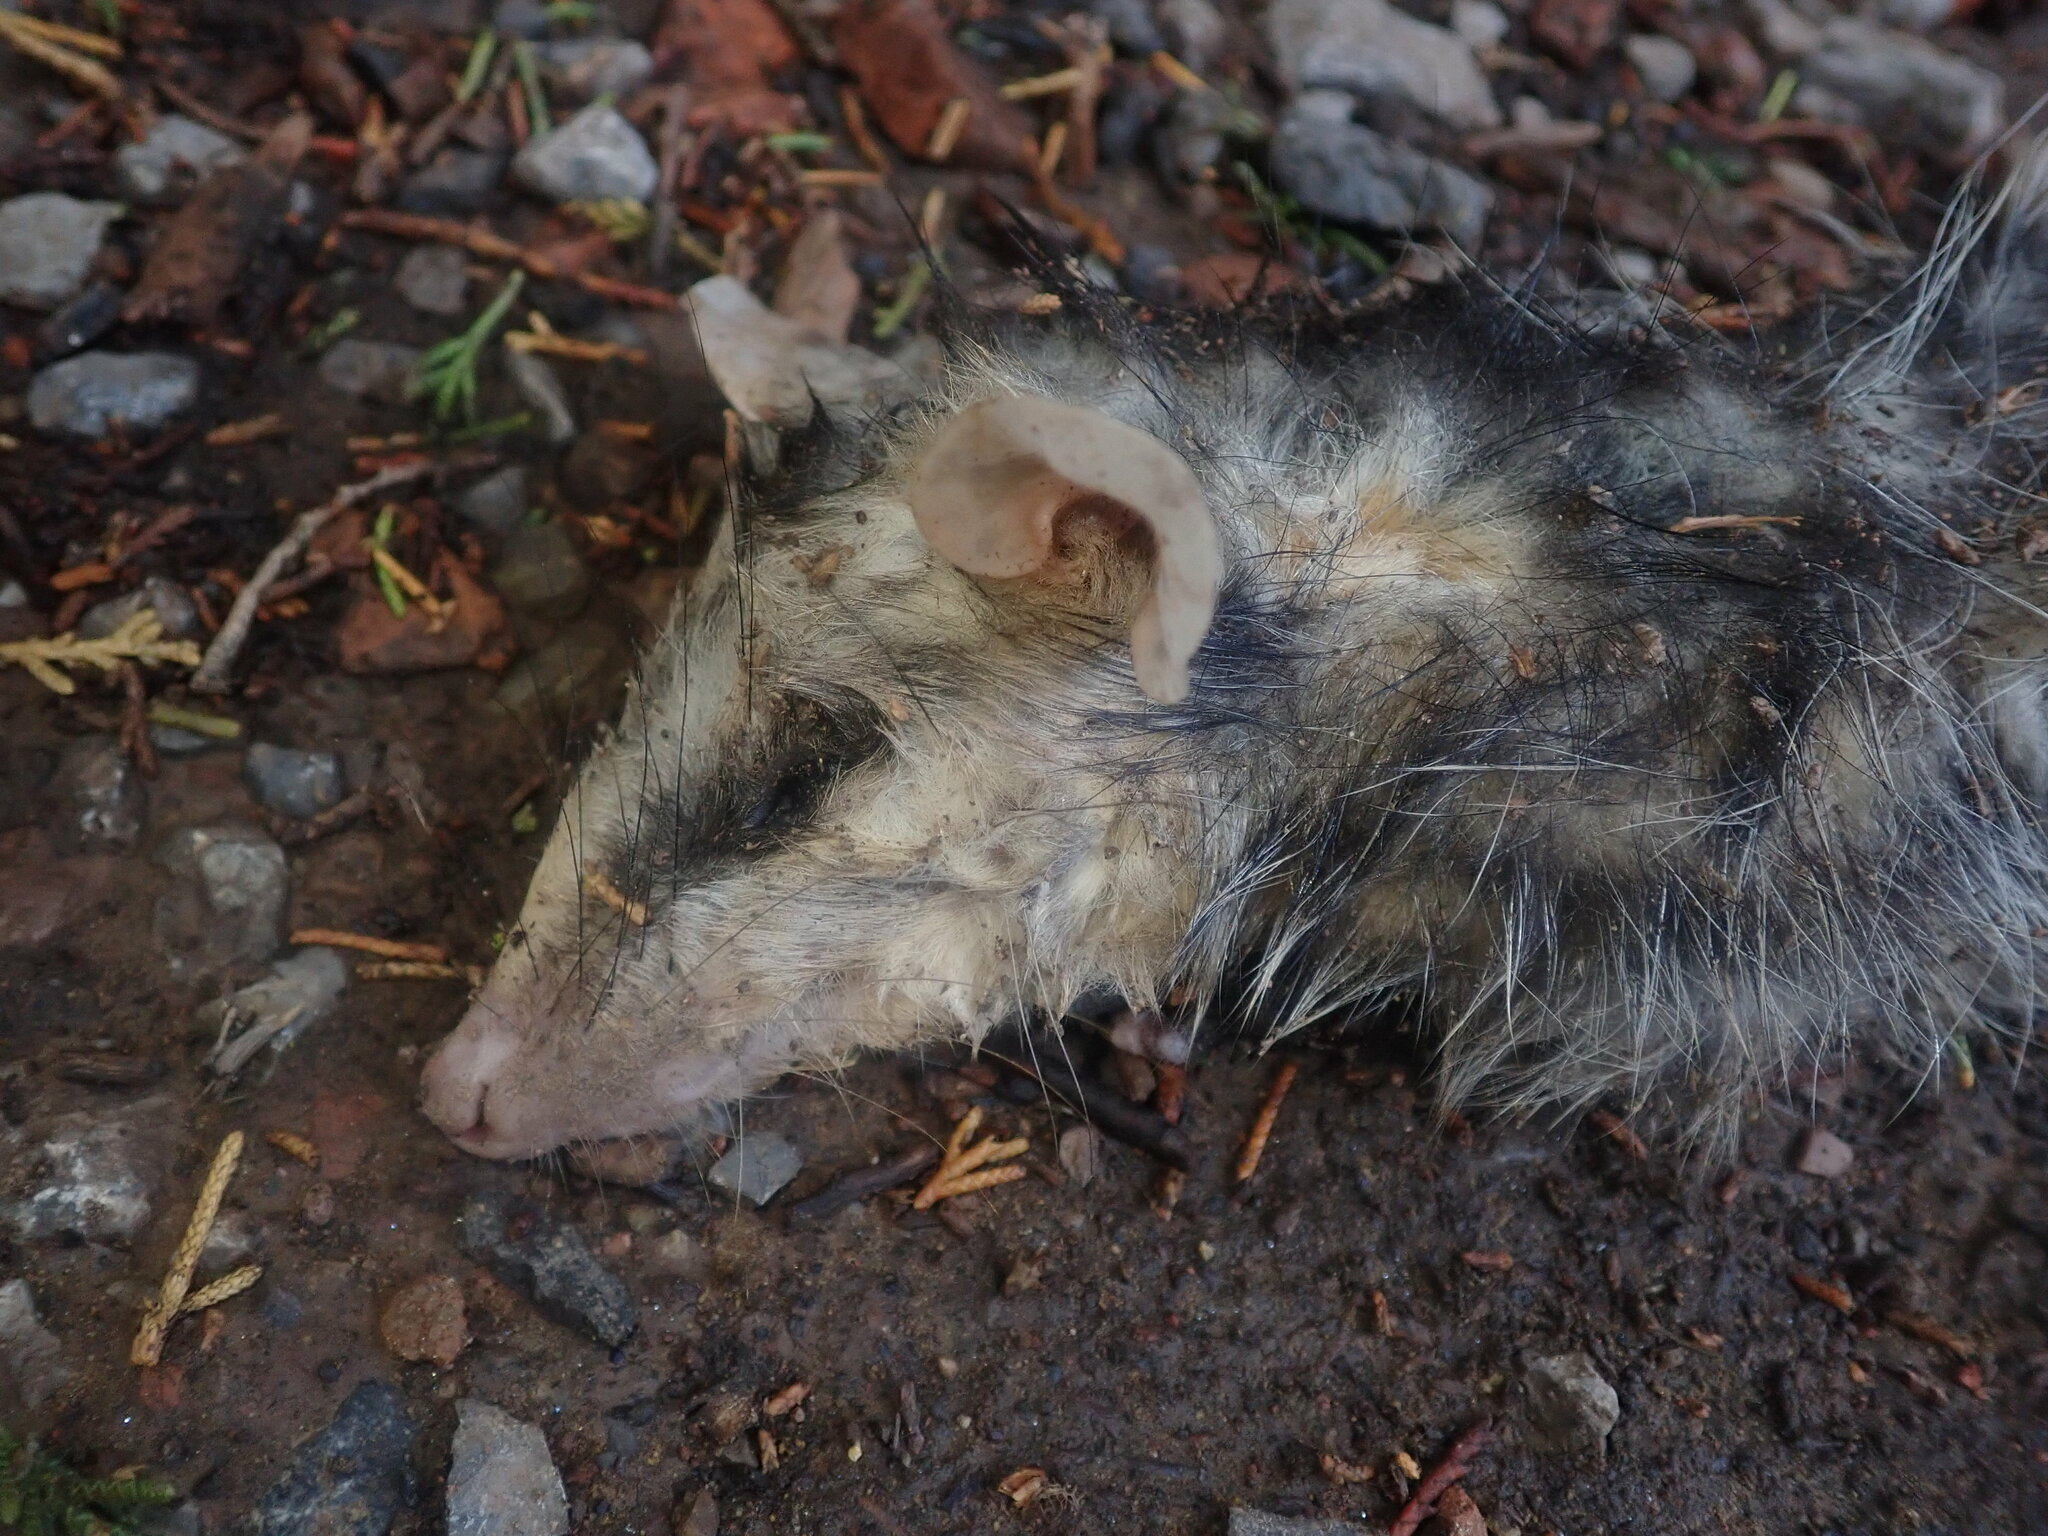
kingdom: Animalia
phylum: Chordata
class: Mammalia
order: Didelphimorphia
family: Didelphidae
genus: Didelphis
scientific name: Didelphis pernigra
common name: Andean white-eared opossum
